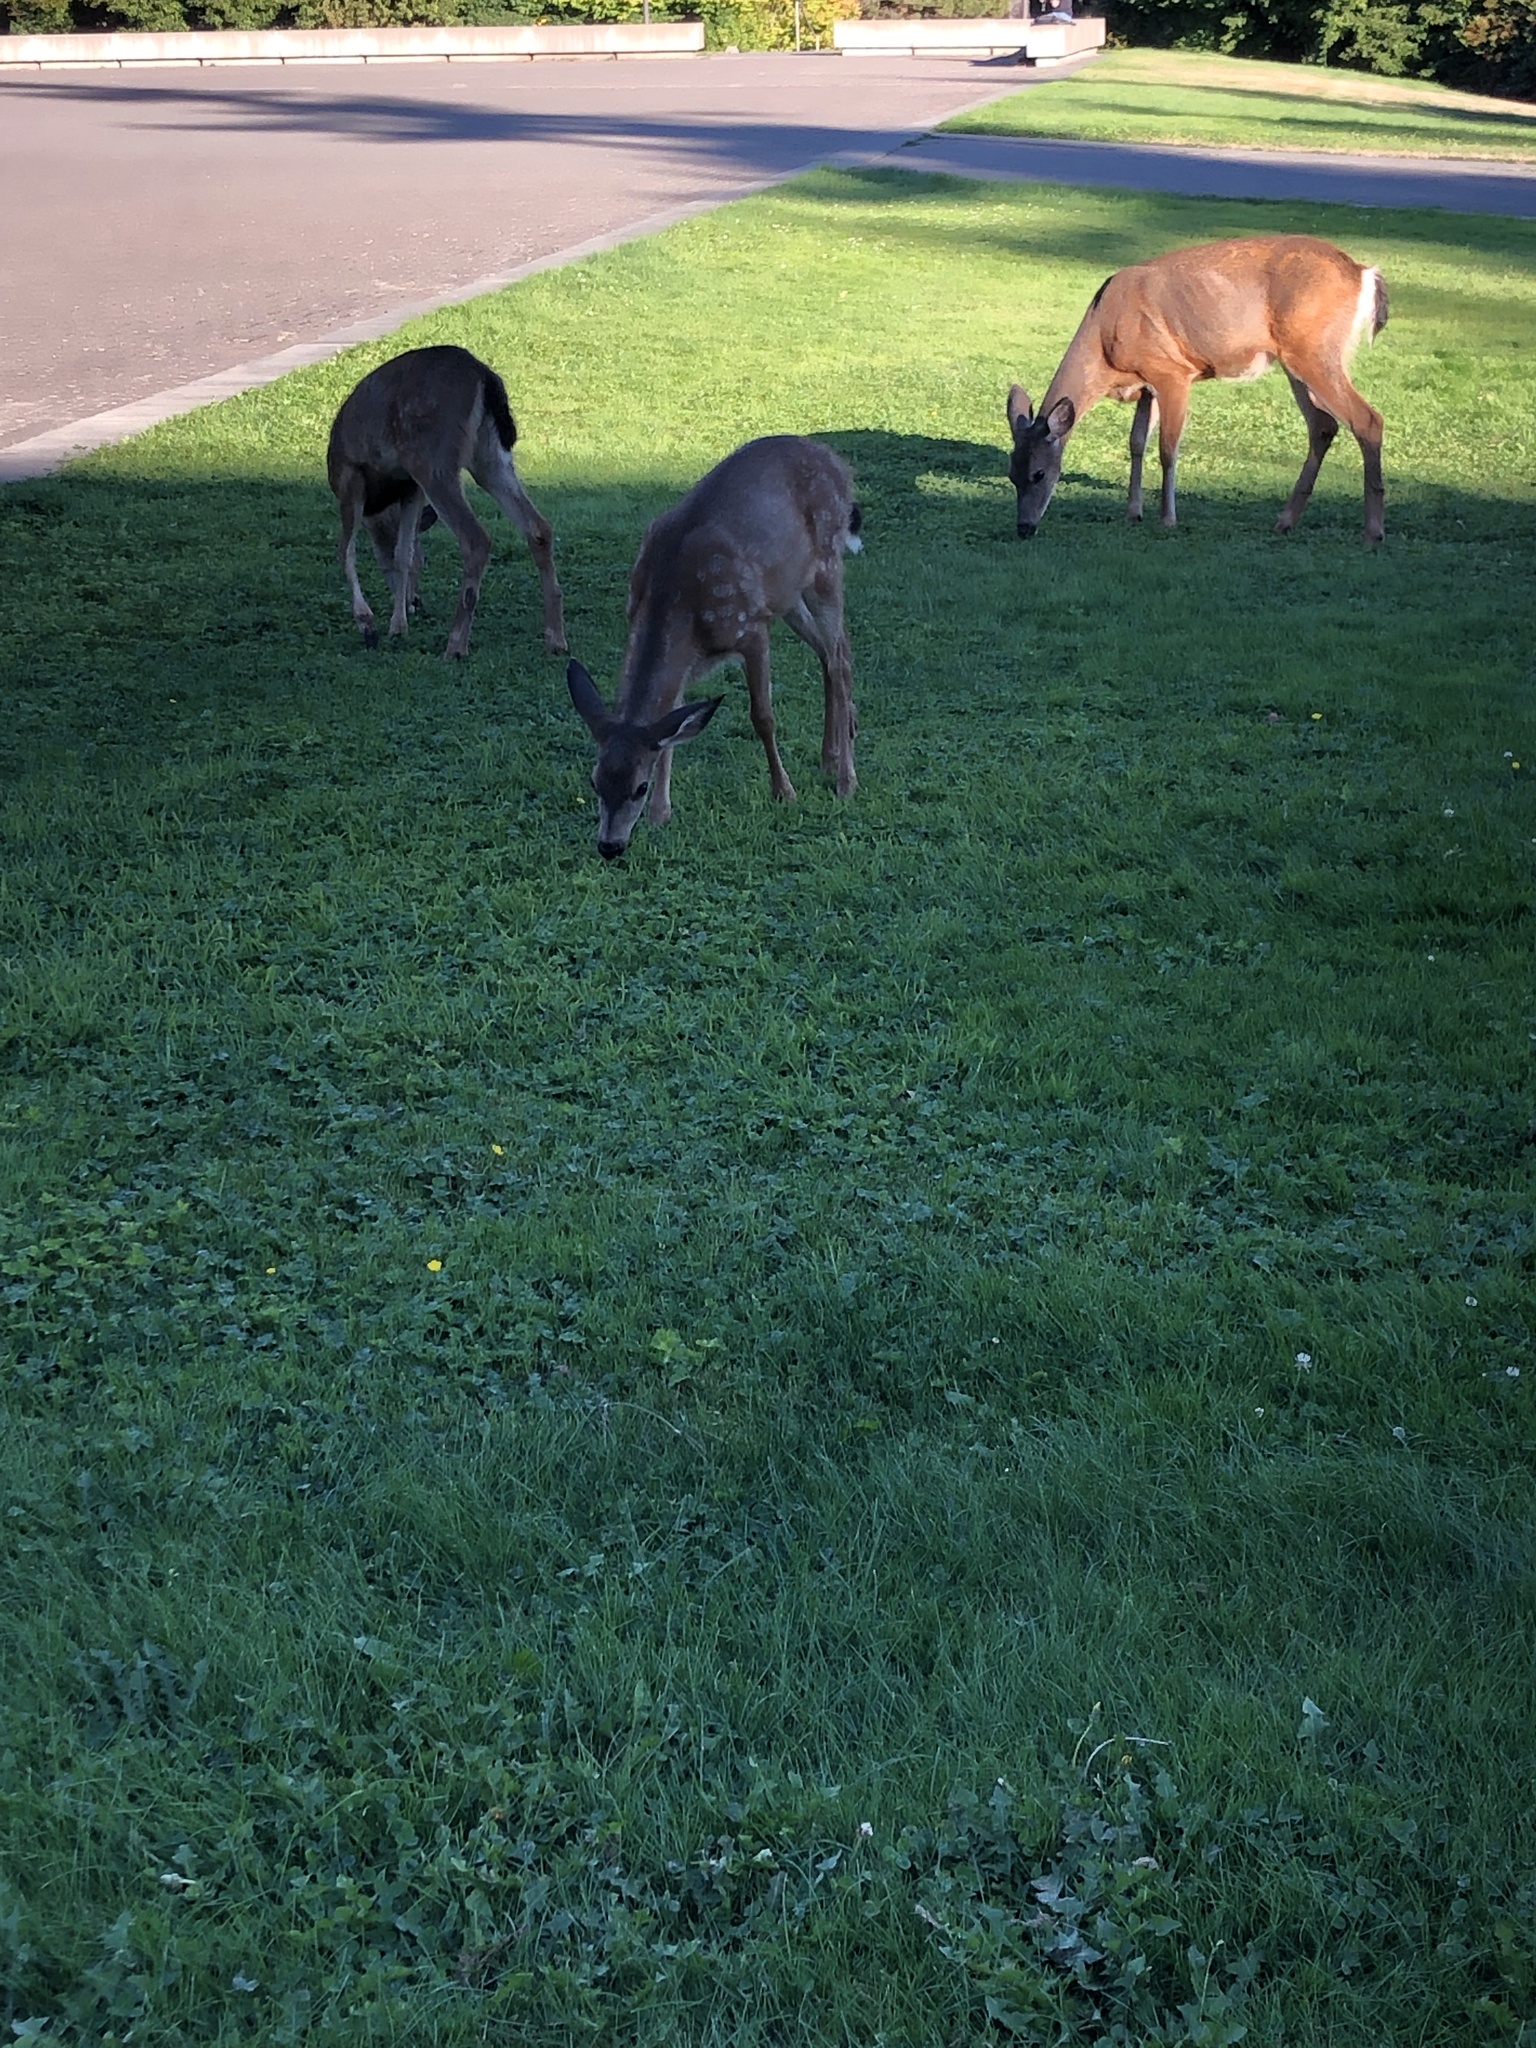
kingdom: Animalia
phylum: Chordata
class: Mammalia
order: Artiodactyla
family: Cervidae
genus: Odocoileus
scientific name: Odocoileus hemionus
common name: Mule deer
